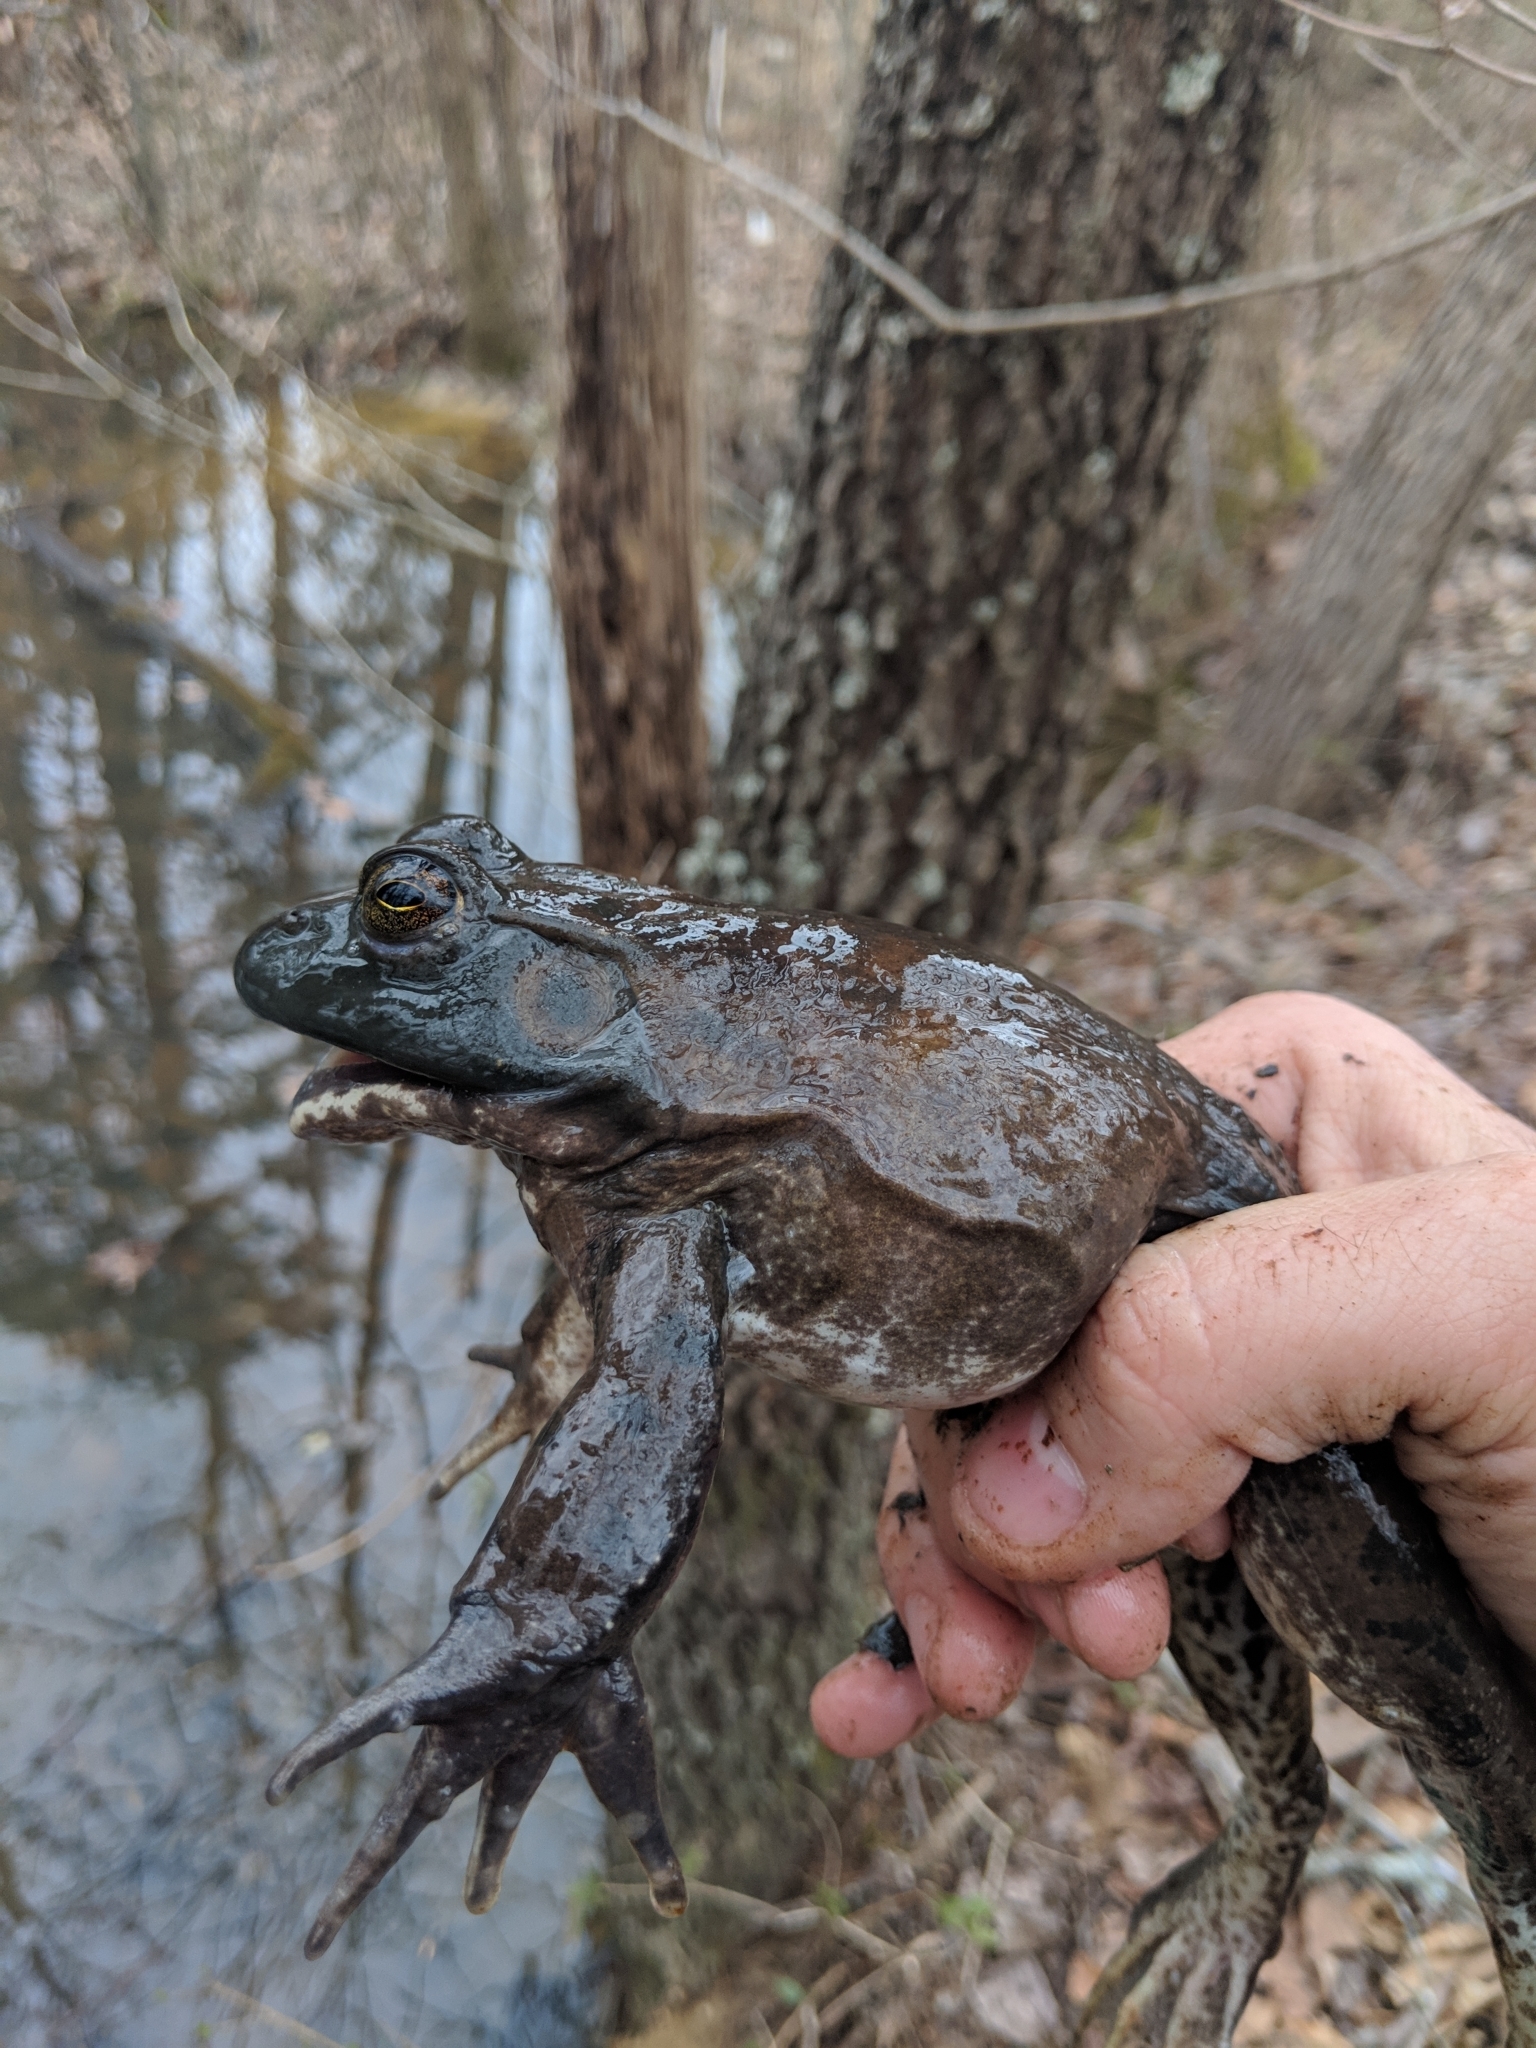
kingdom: Animalia
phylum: Chordata
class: Amphibia
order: Anura
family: Ranidae
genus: Lithobates
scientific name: Lithobates catesbeianus
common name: American bullfrog
